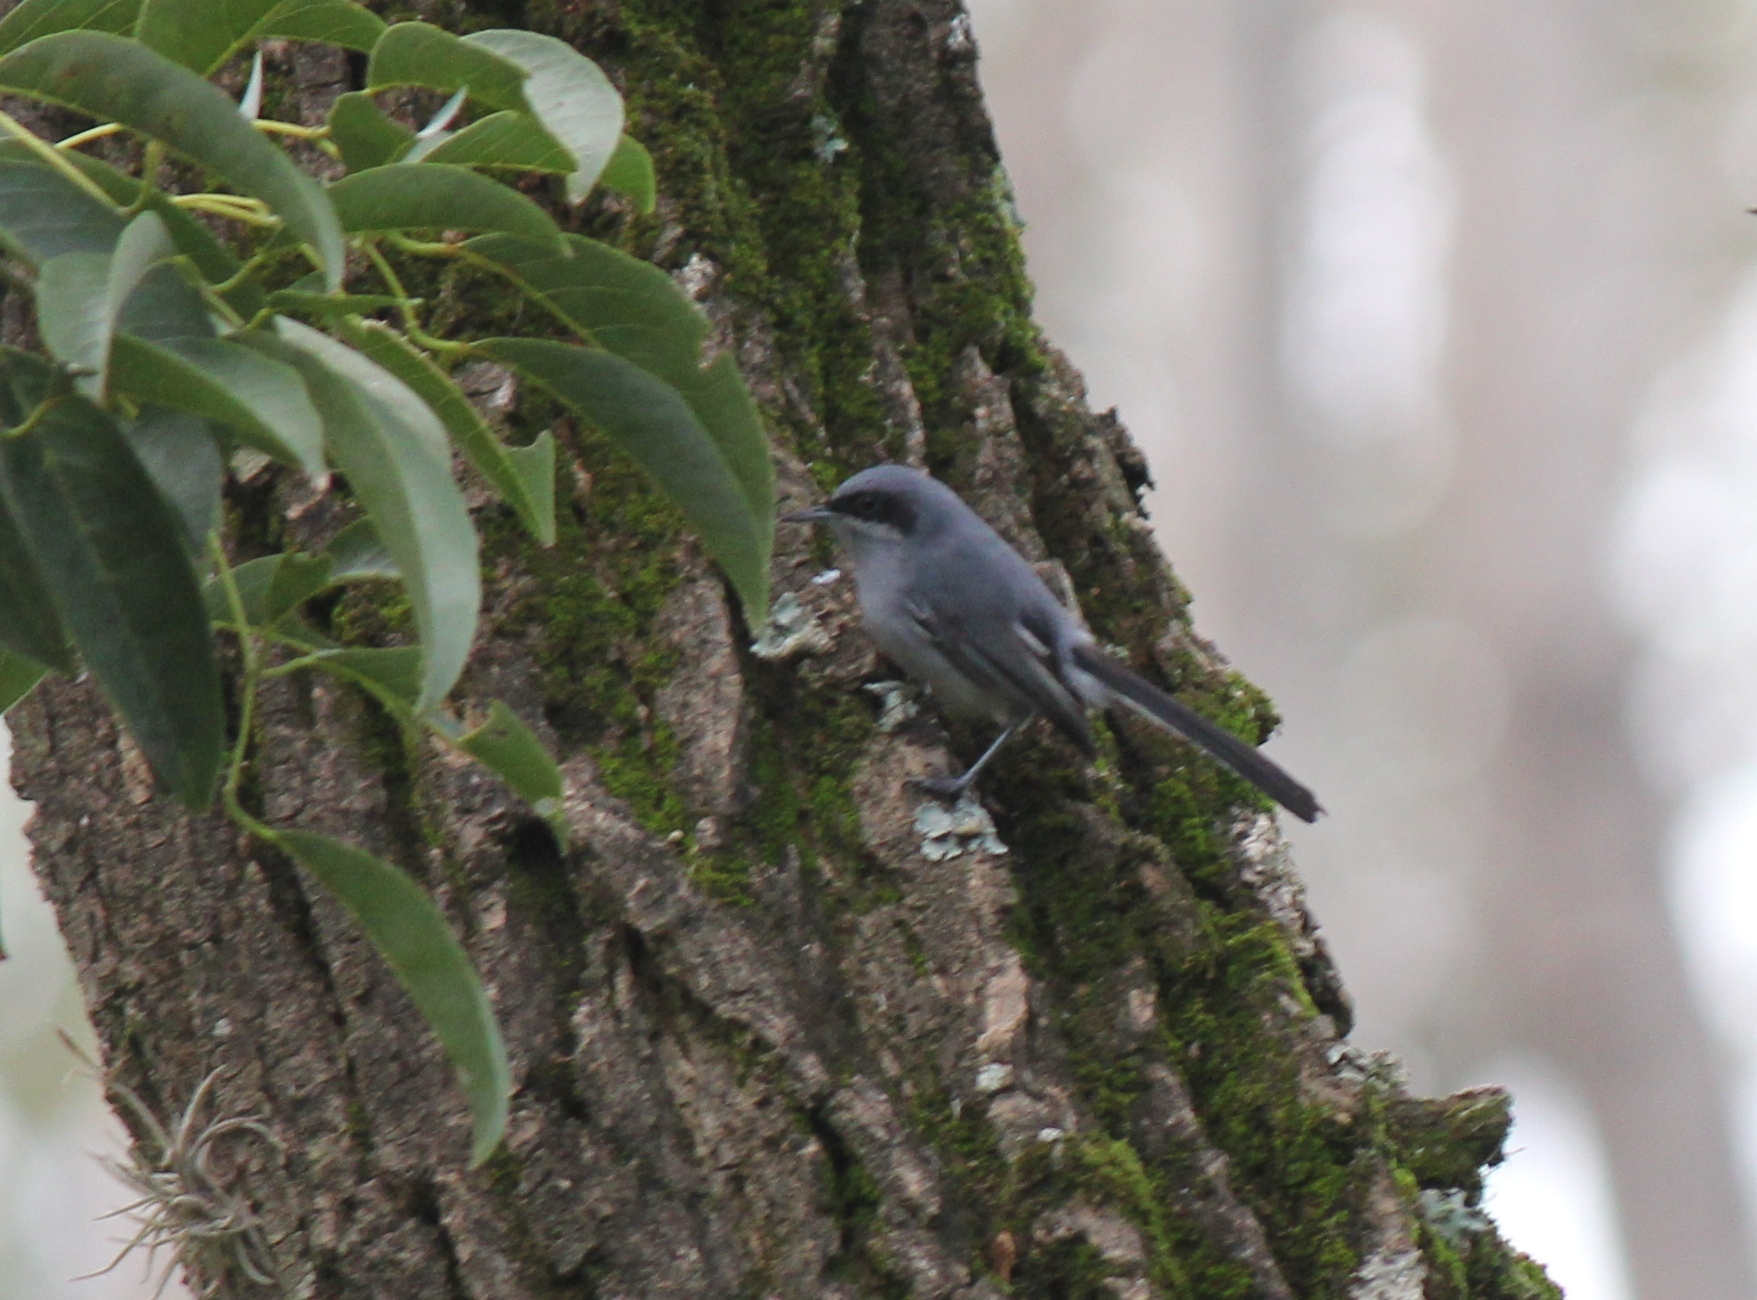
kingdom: Animalia
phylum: Chordata
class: Aves
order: Passeriformes
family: Polioptilidae
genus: Polioptila
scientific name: Polioptila dumicola
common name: Masked gnatcatcher
